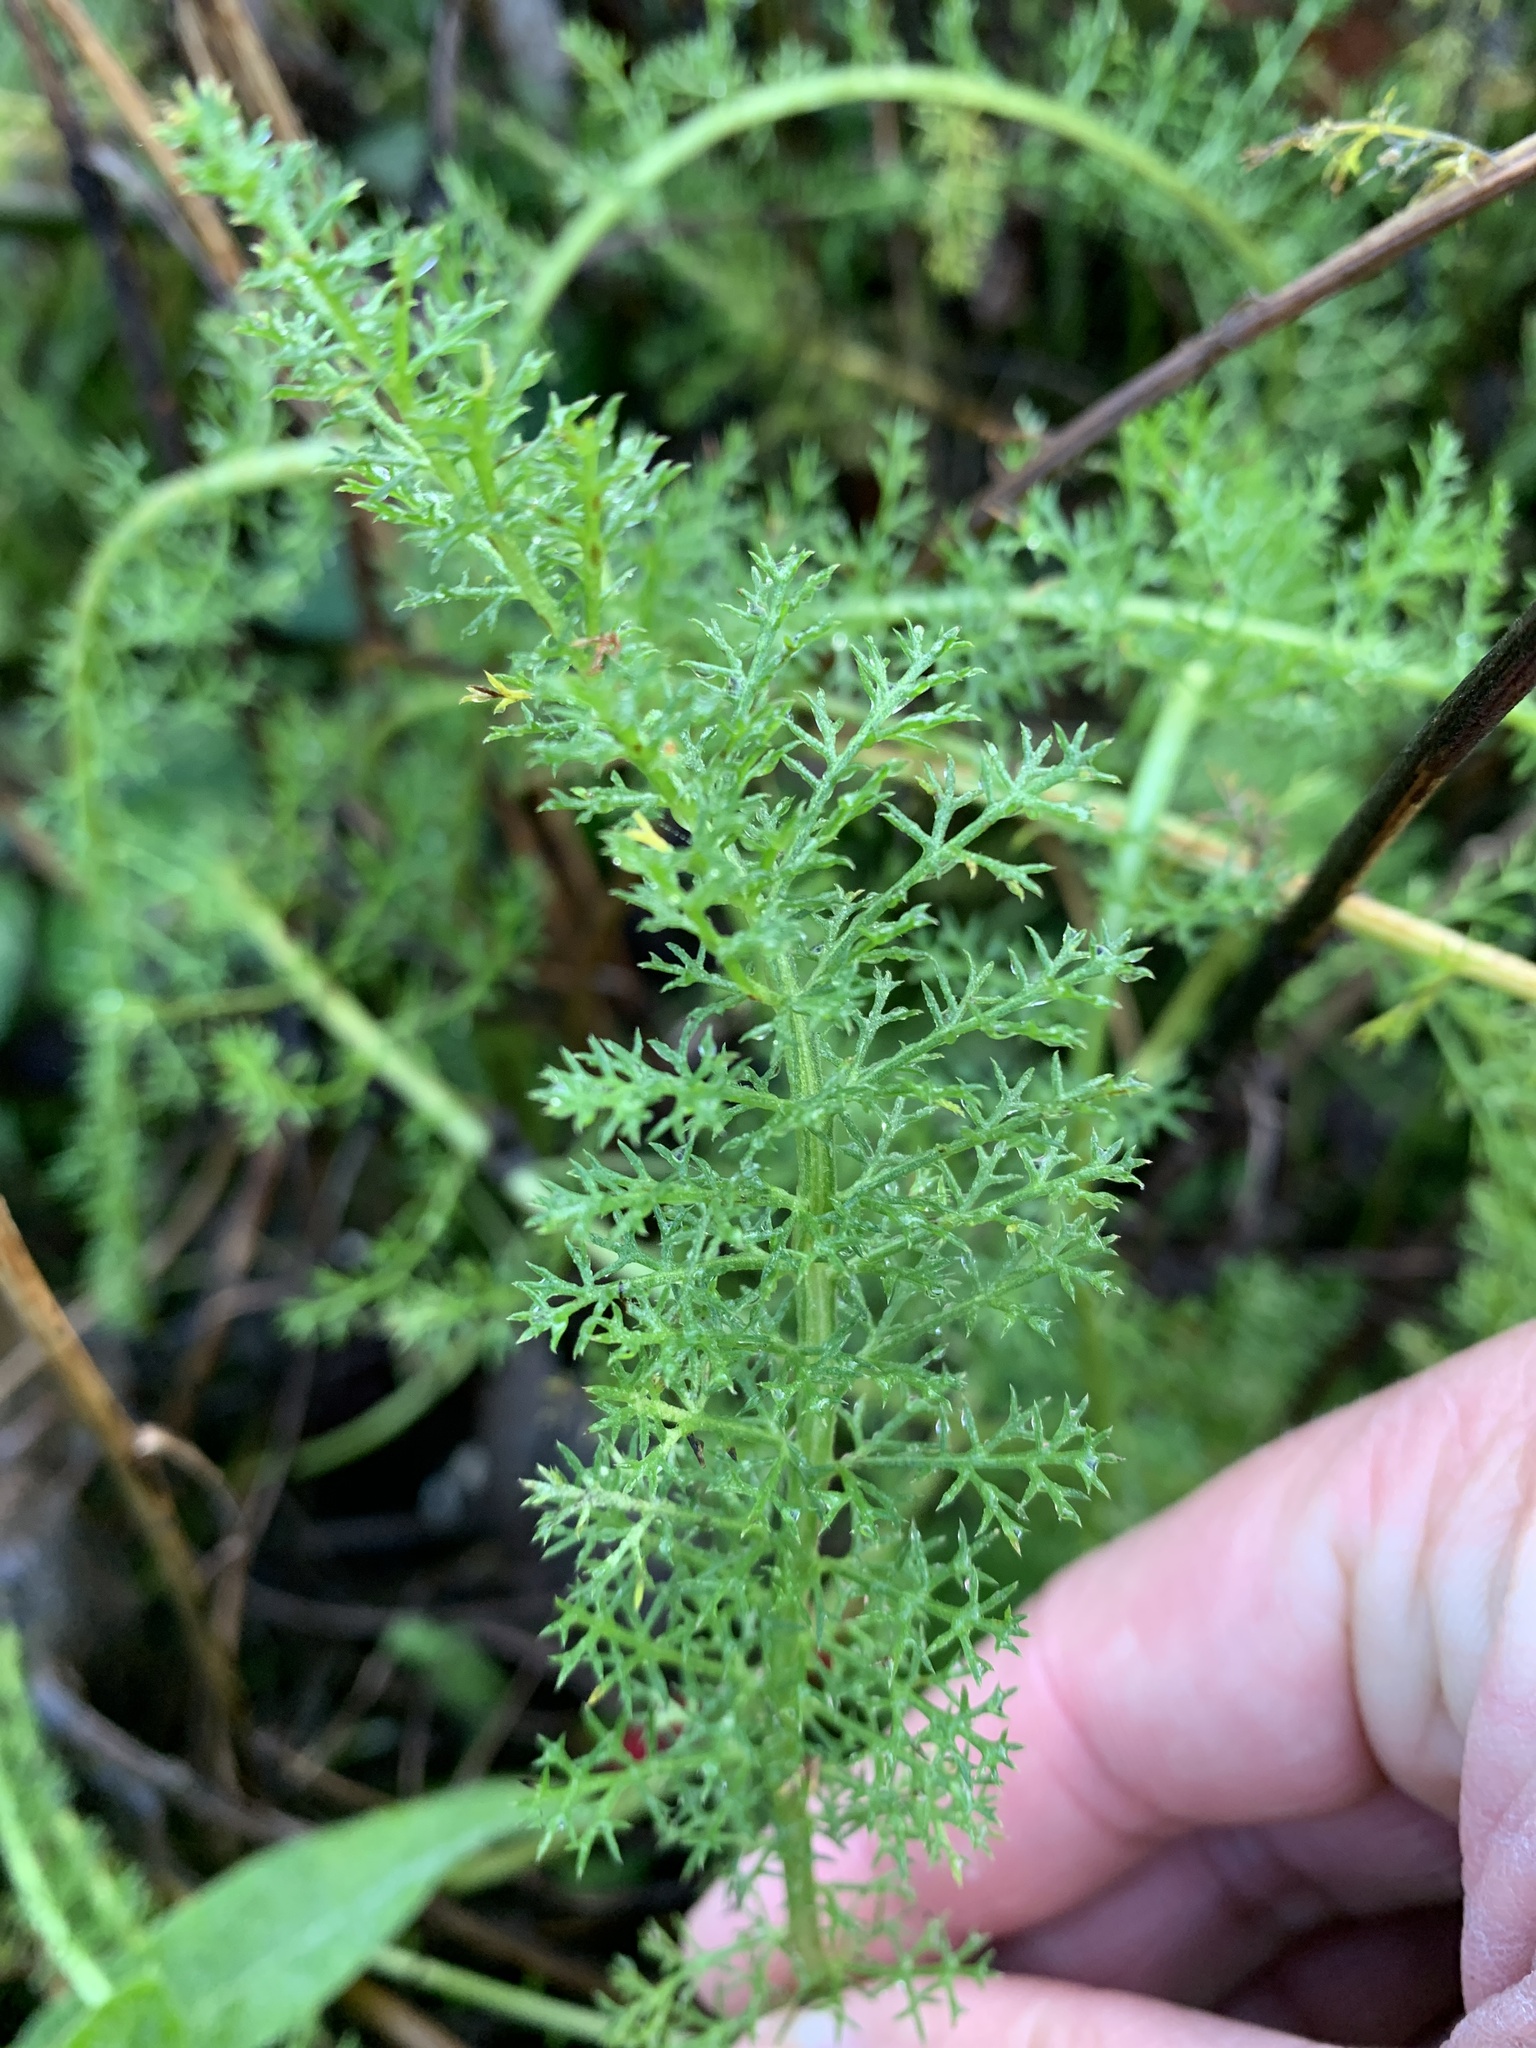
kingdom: Plantae
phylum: Tracheophyta
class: Magnoliopsida
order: Asterales
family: Asteraceae
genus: Achillea
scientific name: Achillea millefolium
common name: Yarrow
